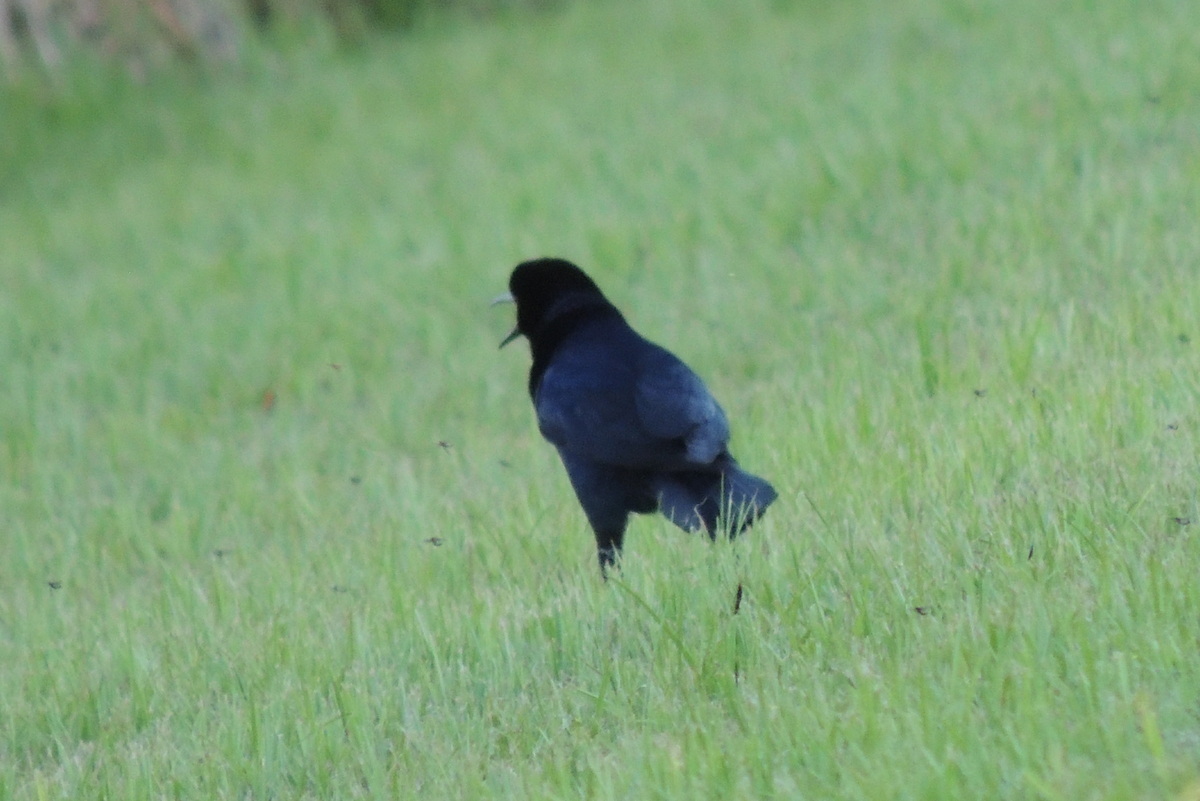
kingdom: Animalia
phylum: Chordata
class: Aves
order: Passeriformes
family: Icteridae
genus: Quiscalus
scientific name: Quiscalus major
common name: Boat-tailed grackle
